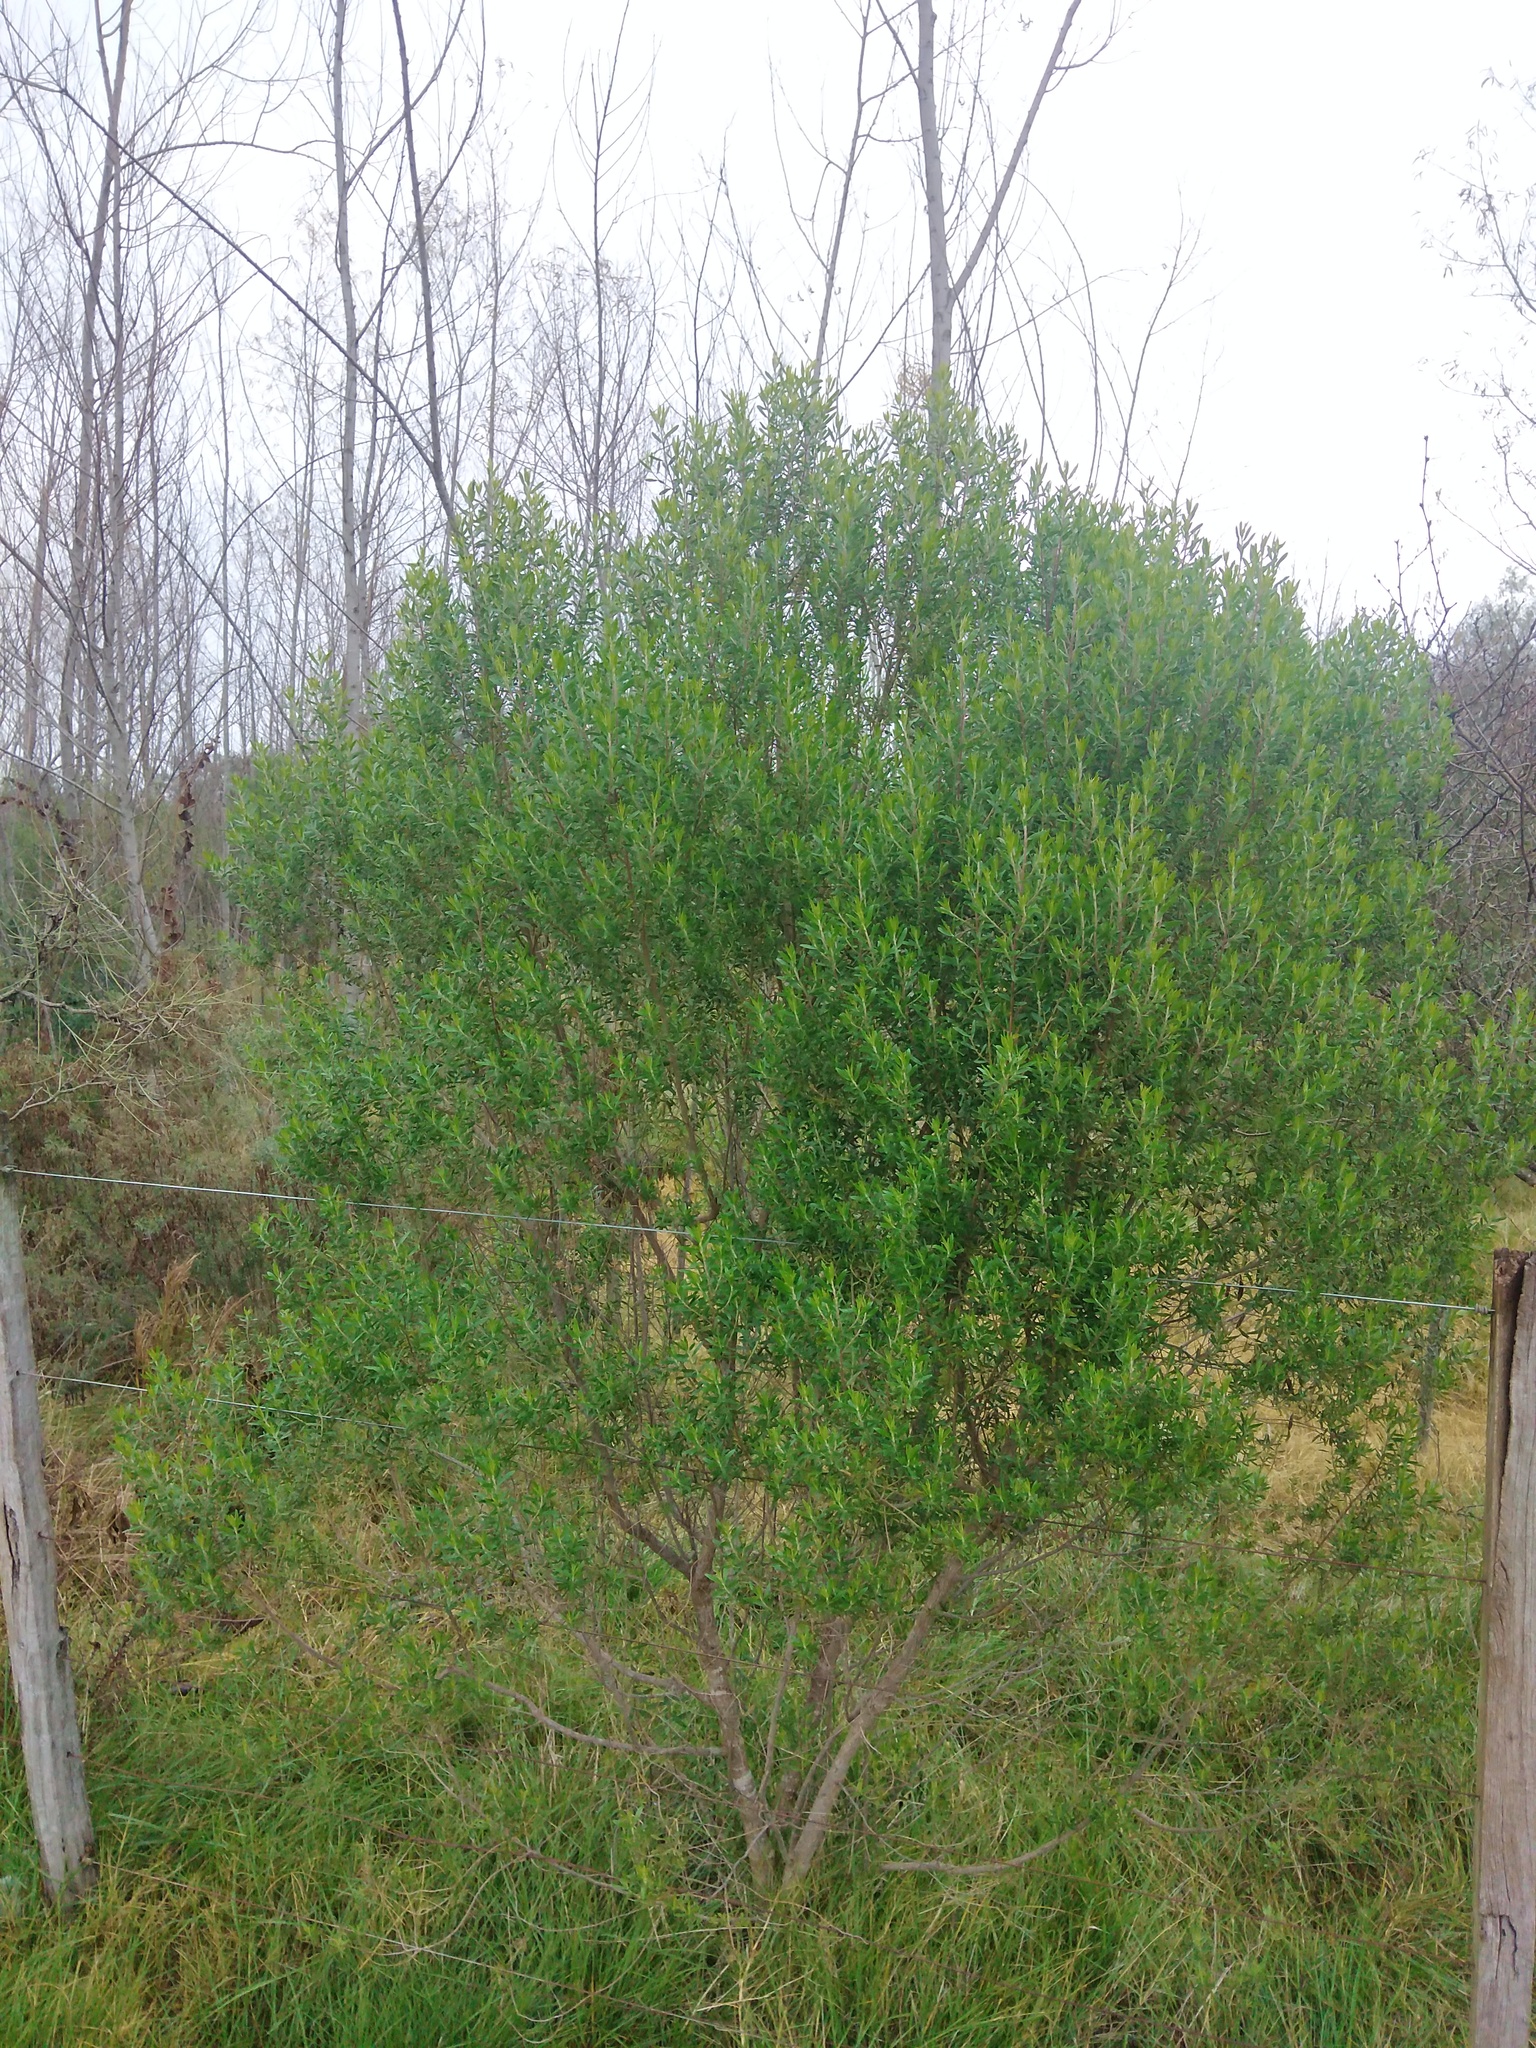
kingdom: Plantae
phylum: Tracheophyta
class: Magnoliopsida
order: Asterales
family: Asteraceae
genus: Baccharis
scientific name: Baccharis dracunculifolia
